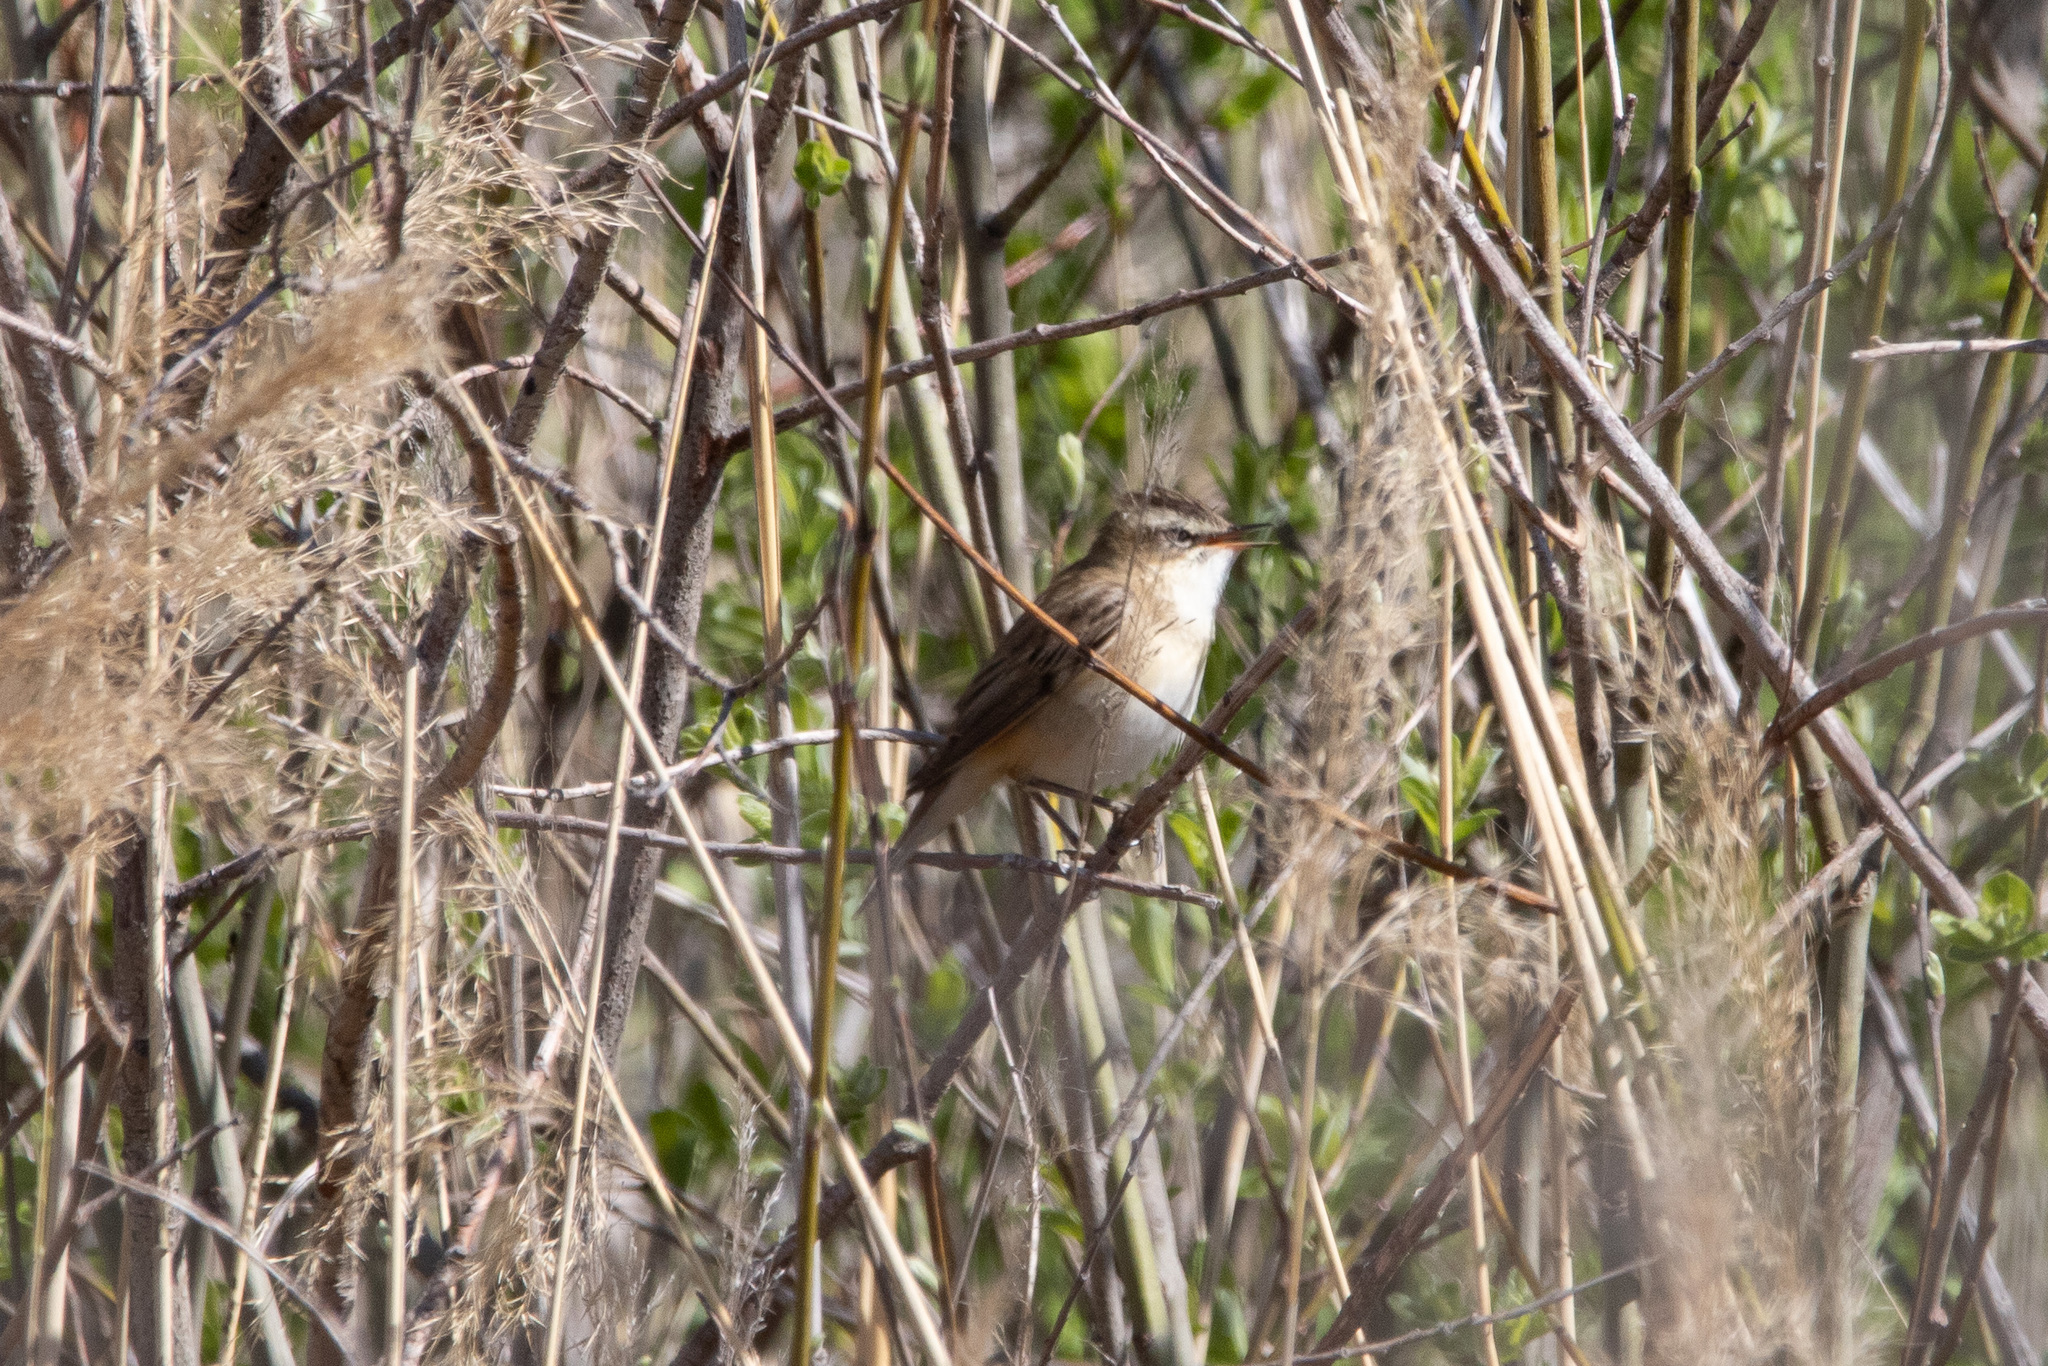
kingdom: Animalia
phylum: Chordata
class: Aves
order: Passeriformes
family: Acrocephalidae
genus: Acrocephalus
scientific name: Acrocephalus schoenobaenus
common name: Sedge warbler
